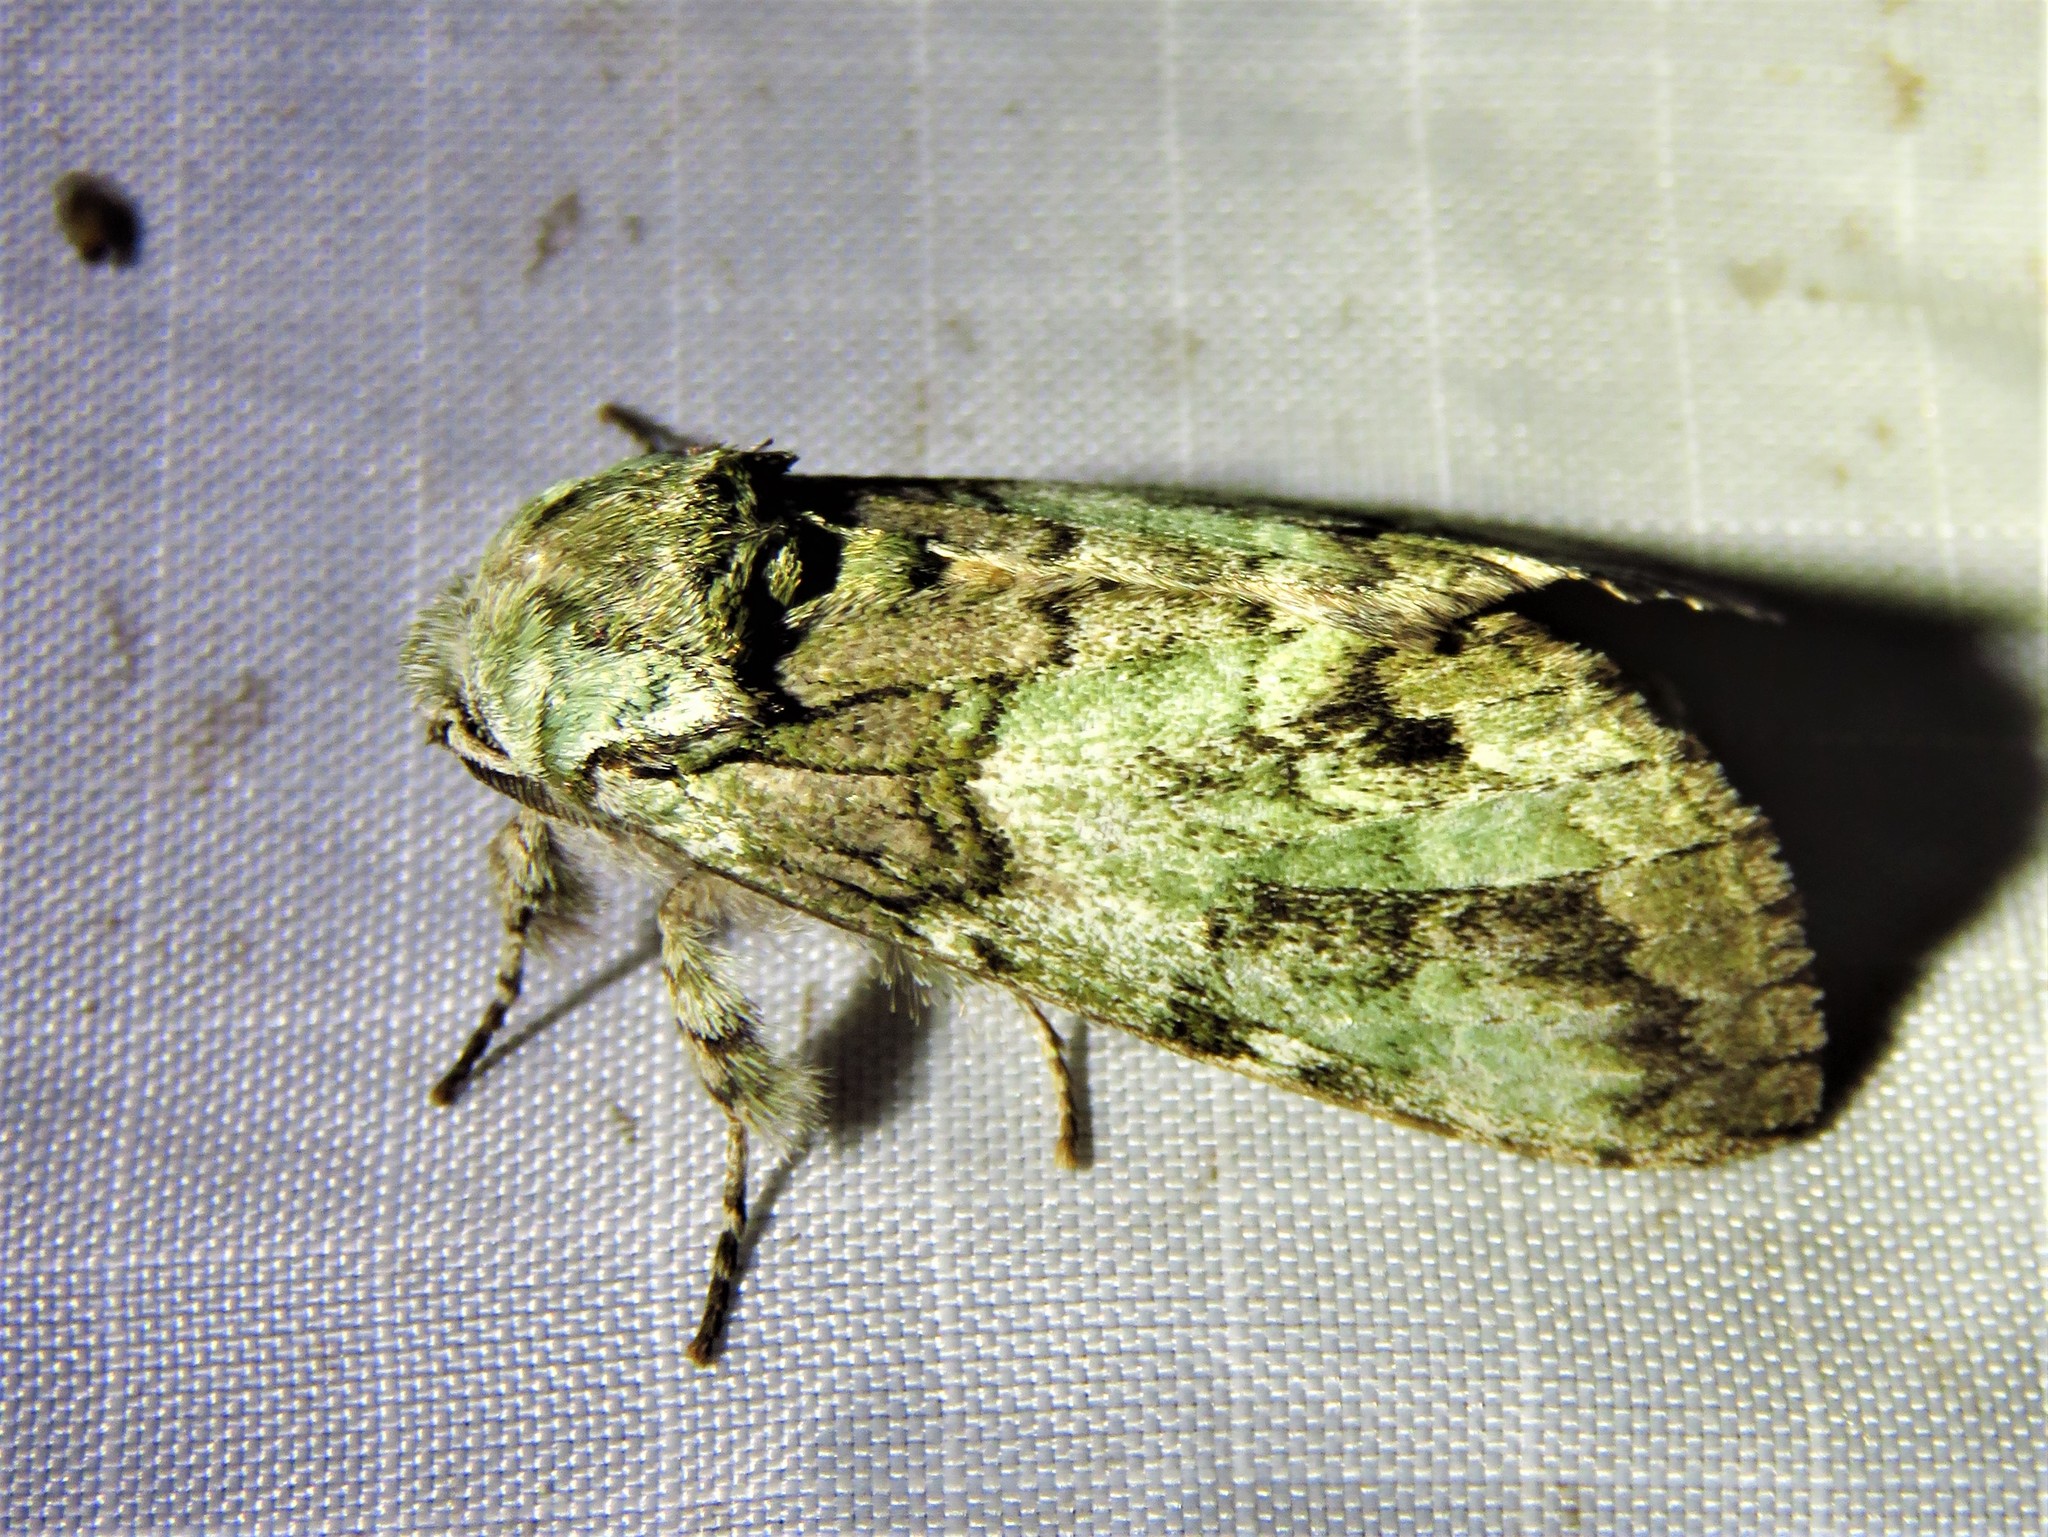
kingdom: Animalia
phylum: Arthropoda
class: Insecta
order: Lepidoptera
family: Notodontidae
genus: Macrurocampa
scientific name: Macrurocampa marthesia
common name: Mottled prominent
